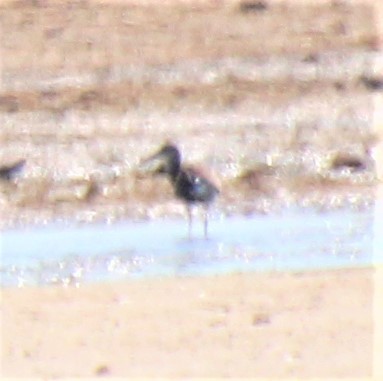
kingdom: Animalia
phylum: Chordata
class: Aves
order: Gruiformes
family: Rallidae
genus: Rallus
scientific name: Rallus
